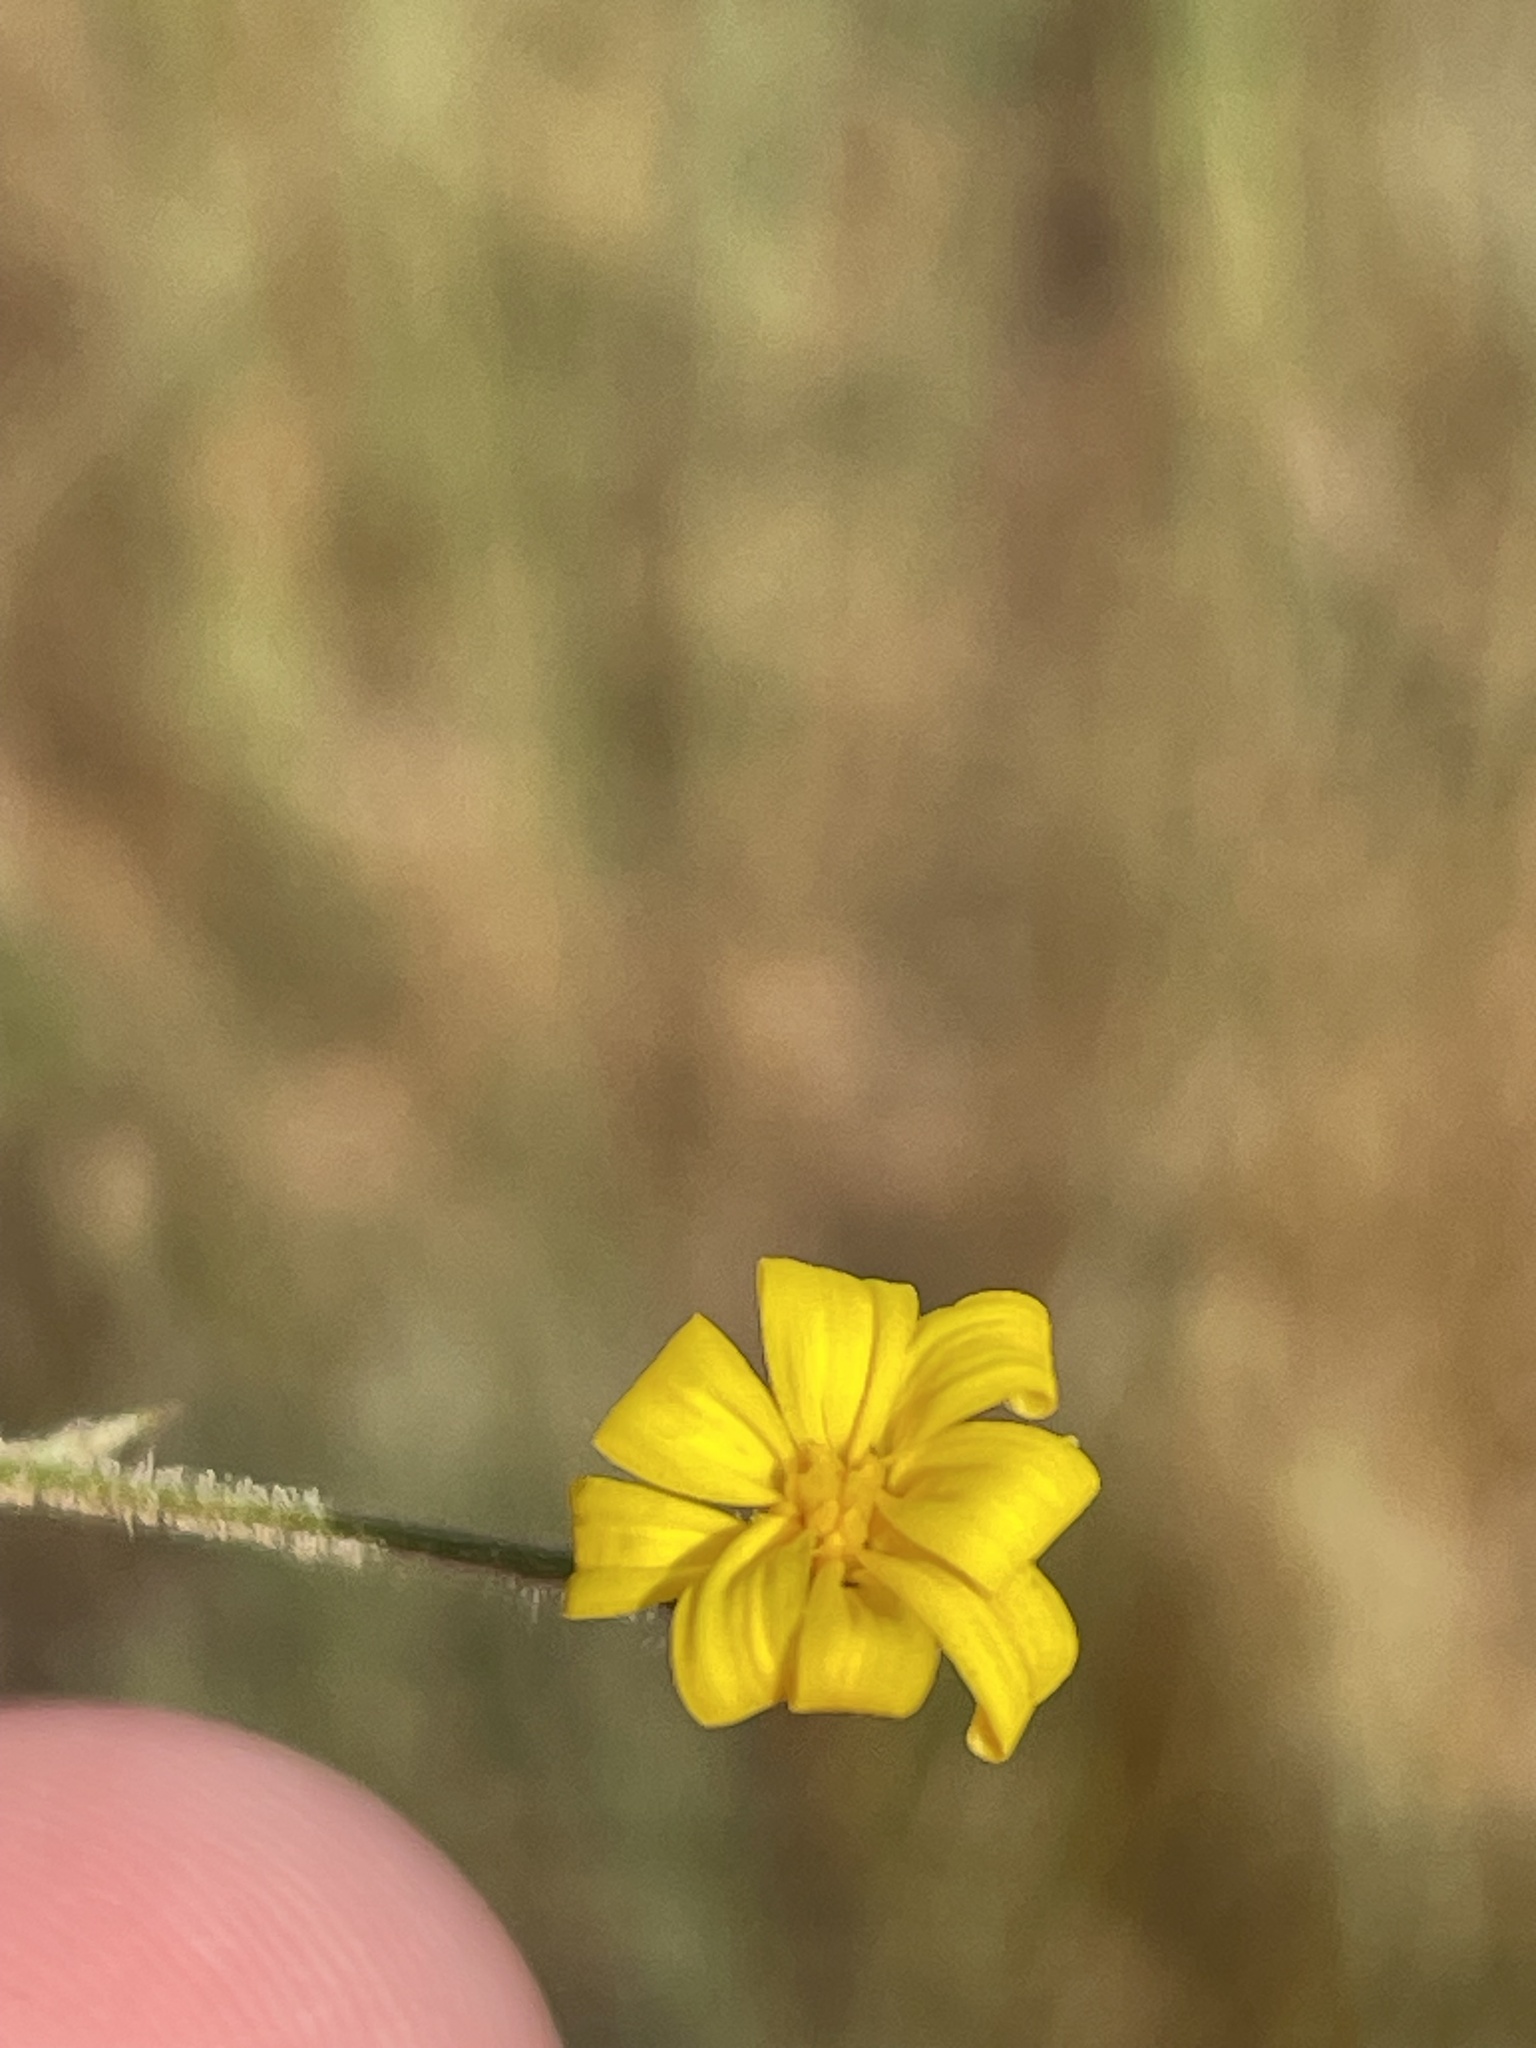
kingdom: Plantae
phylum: Tracheophyta
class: Magnoliopsida
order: Asterales
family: Asteraceae
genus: Croptilon
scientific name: Croptilon divaricatum
